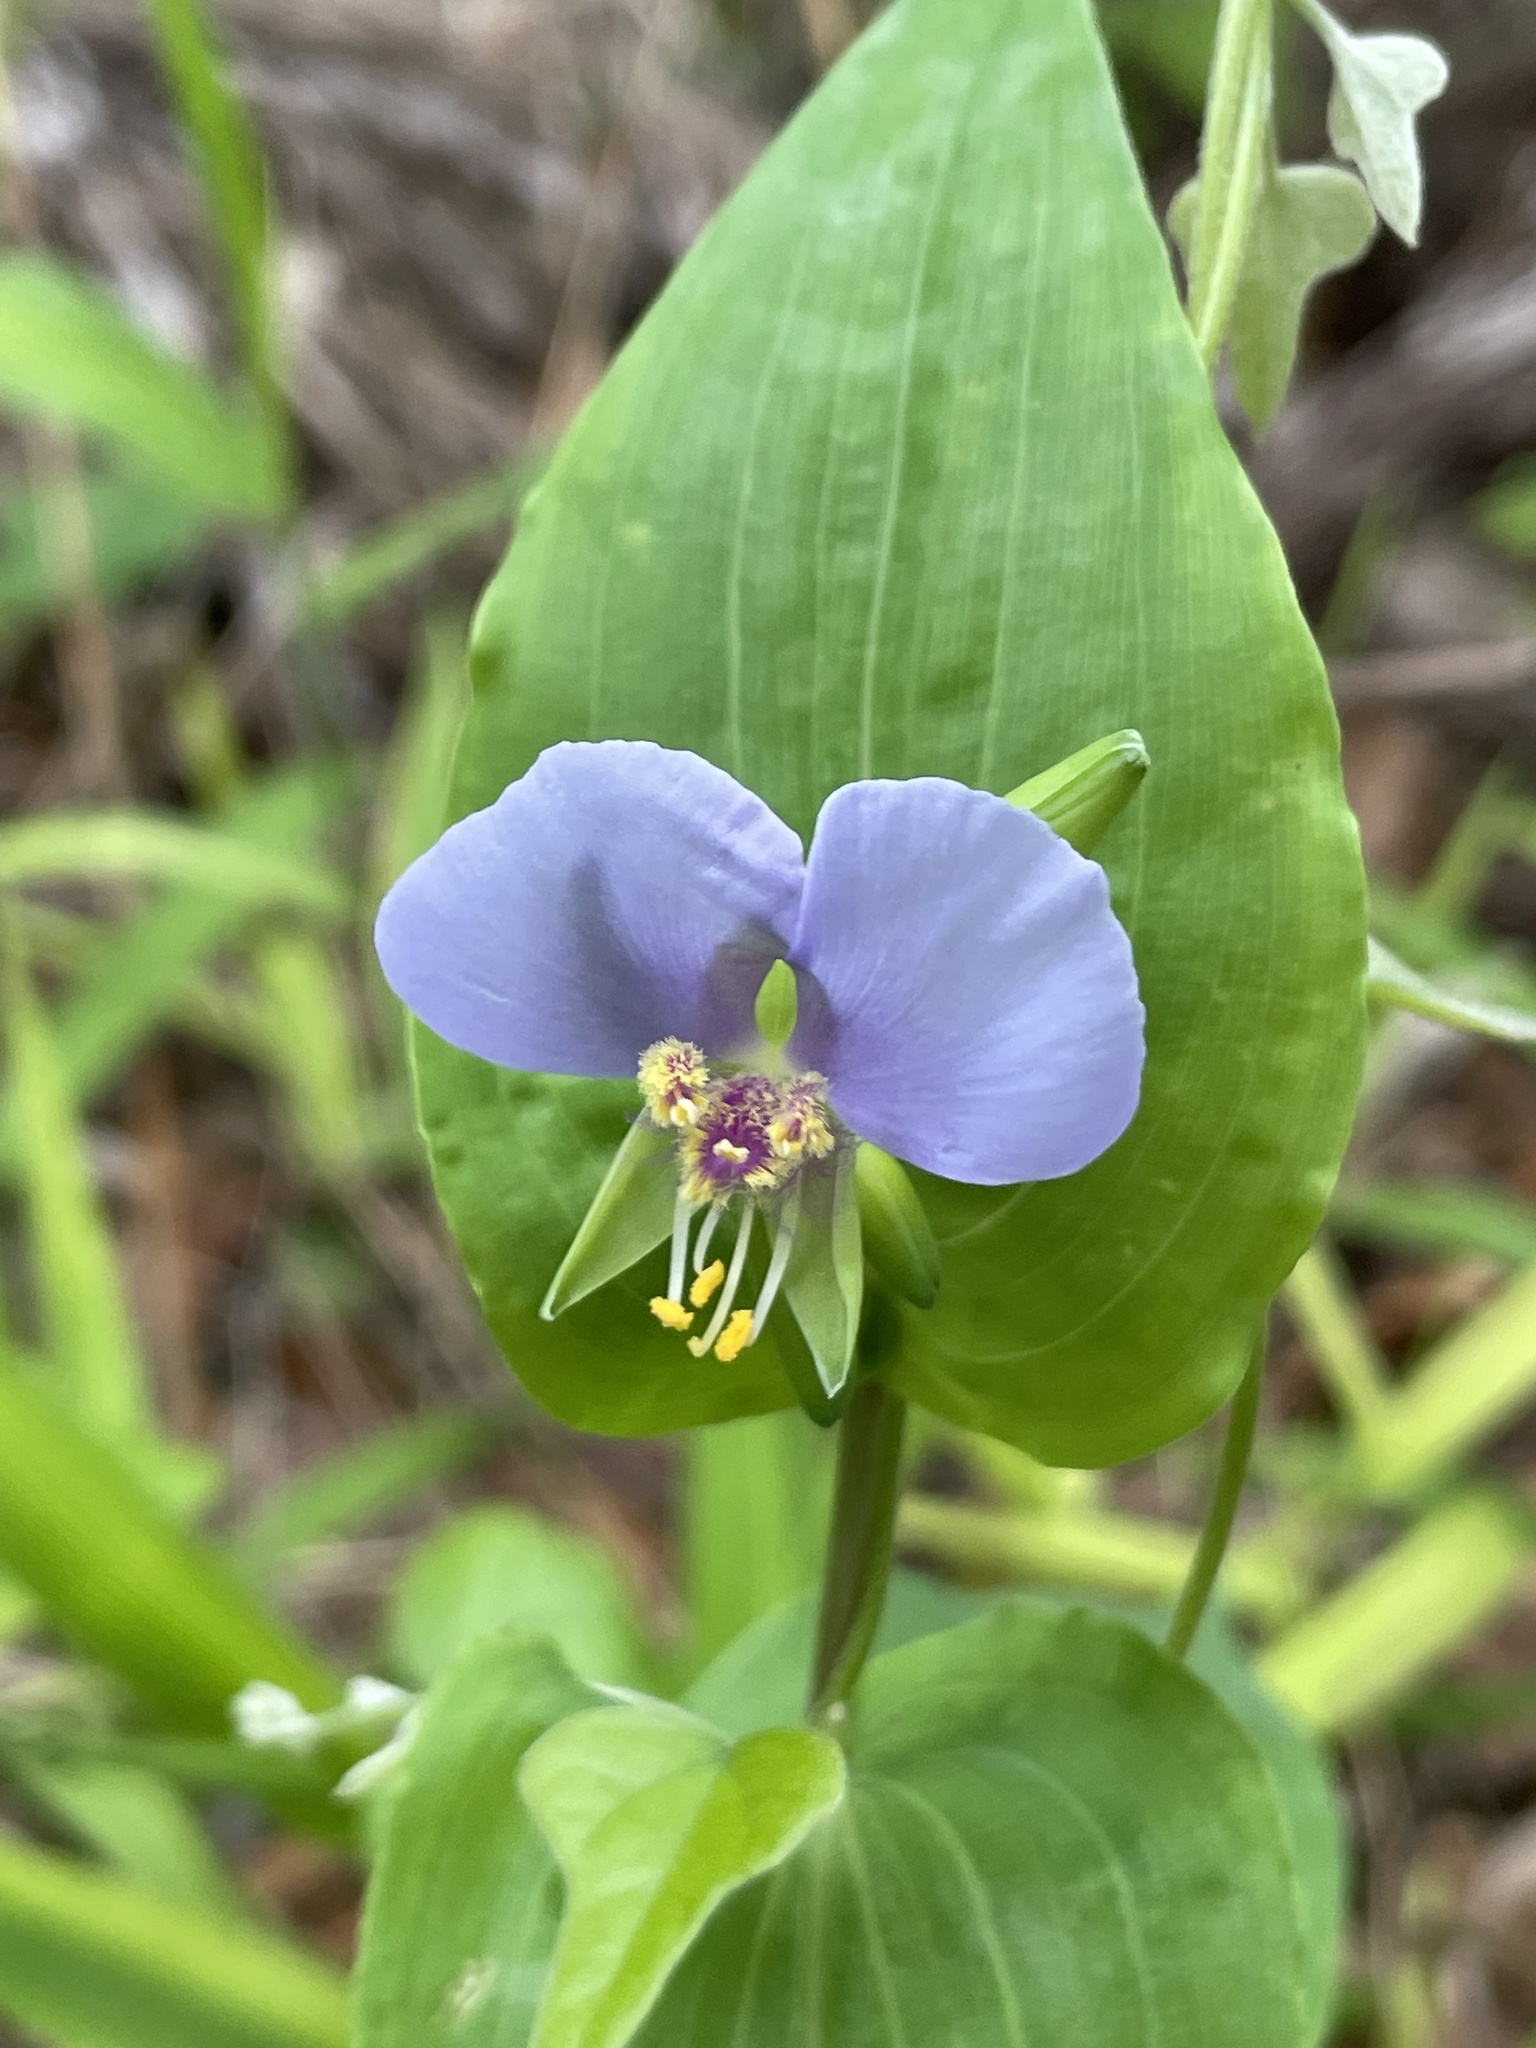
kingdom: Plantae
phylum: Tracheophyta
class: Liliopsida
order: Commelinales
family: Commelinaceae
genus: Tinantia
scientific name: Tinantia anomala
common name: False dayflower
